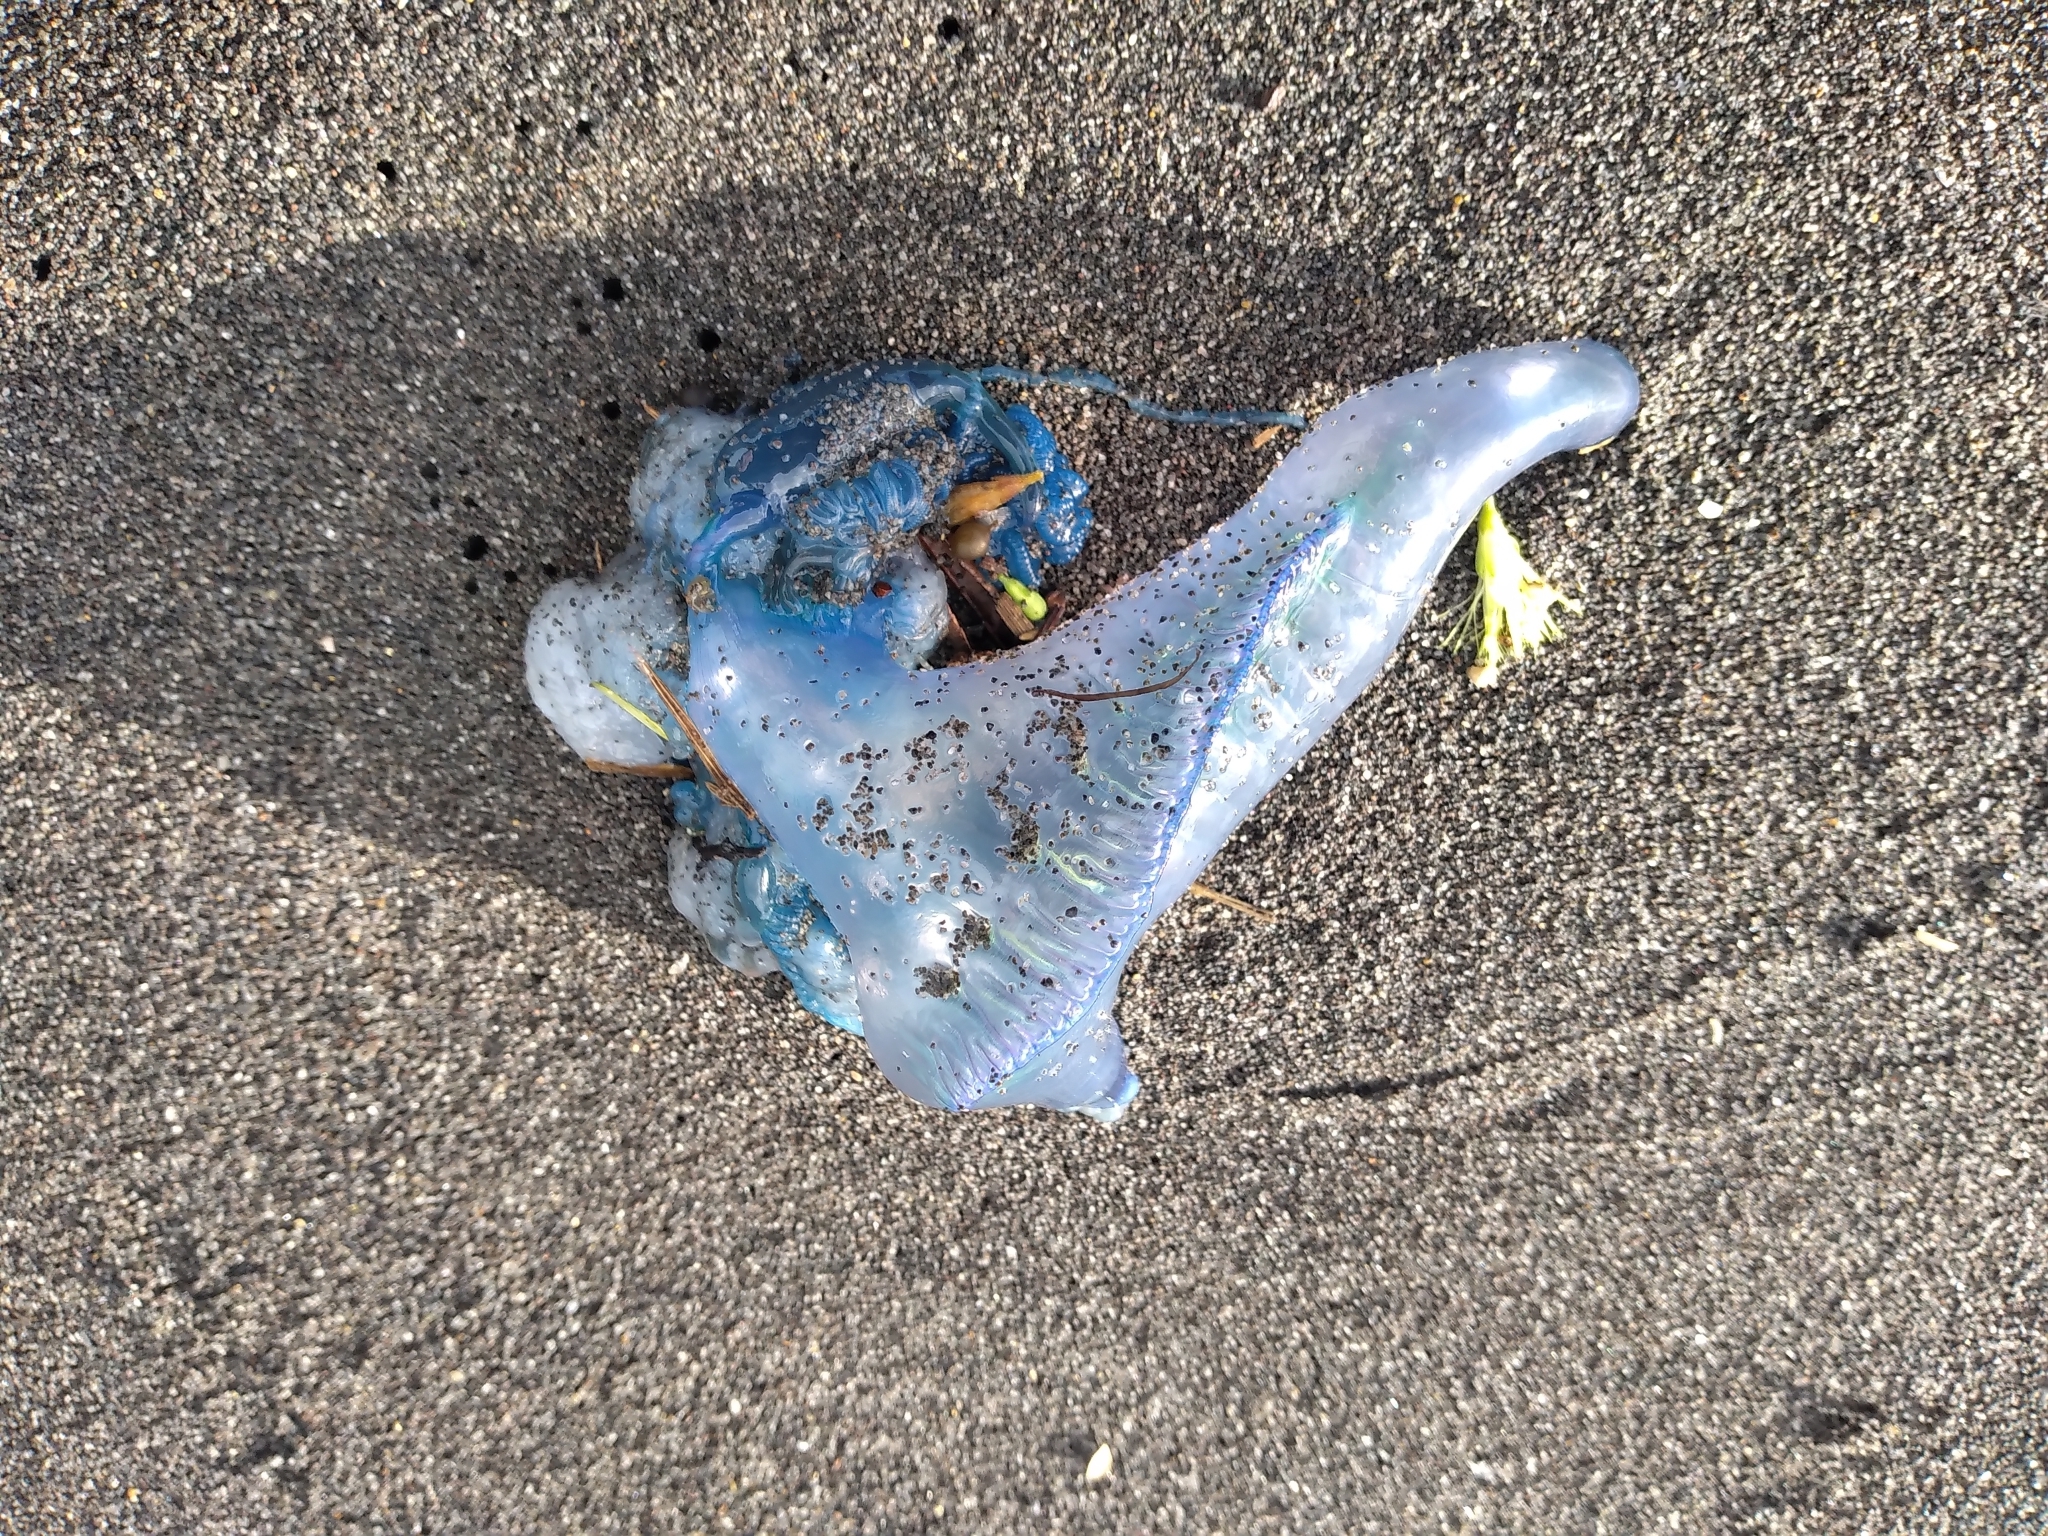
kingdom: Animalia
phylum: Cnidaria
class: Hydrozoa
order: Siphonophorae
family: Physaliidae
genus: Physalia
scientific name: Physalia physalis
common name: Portuguese man-of-war
